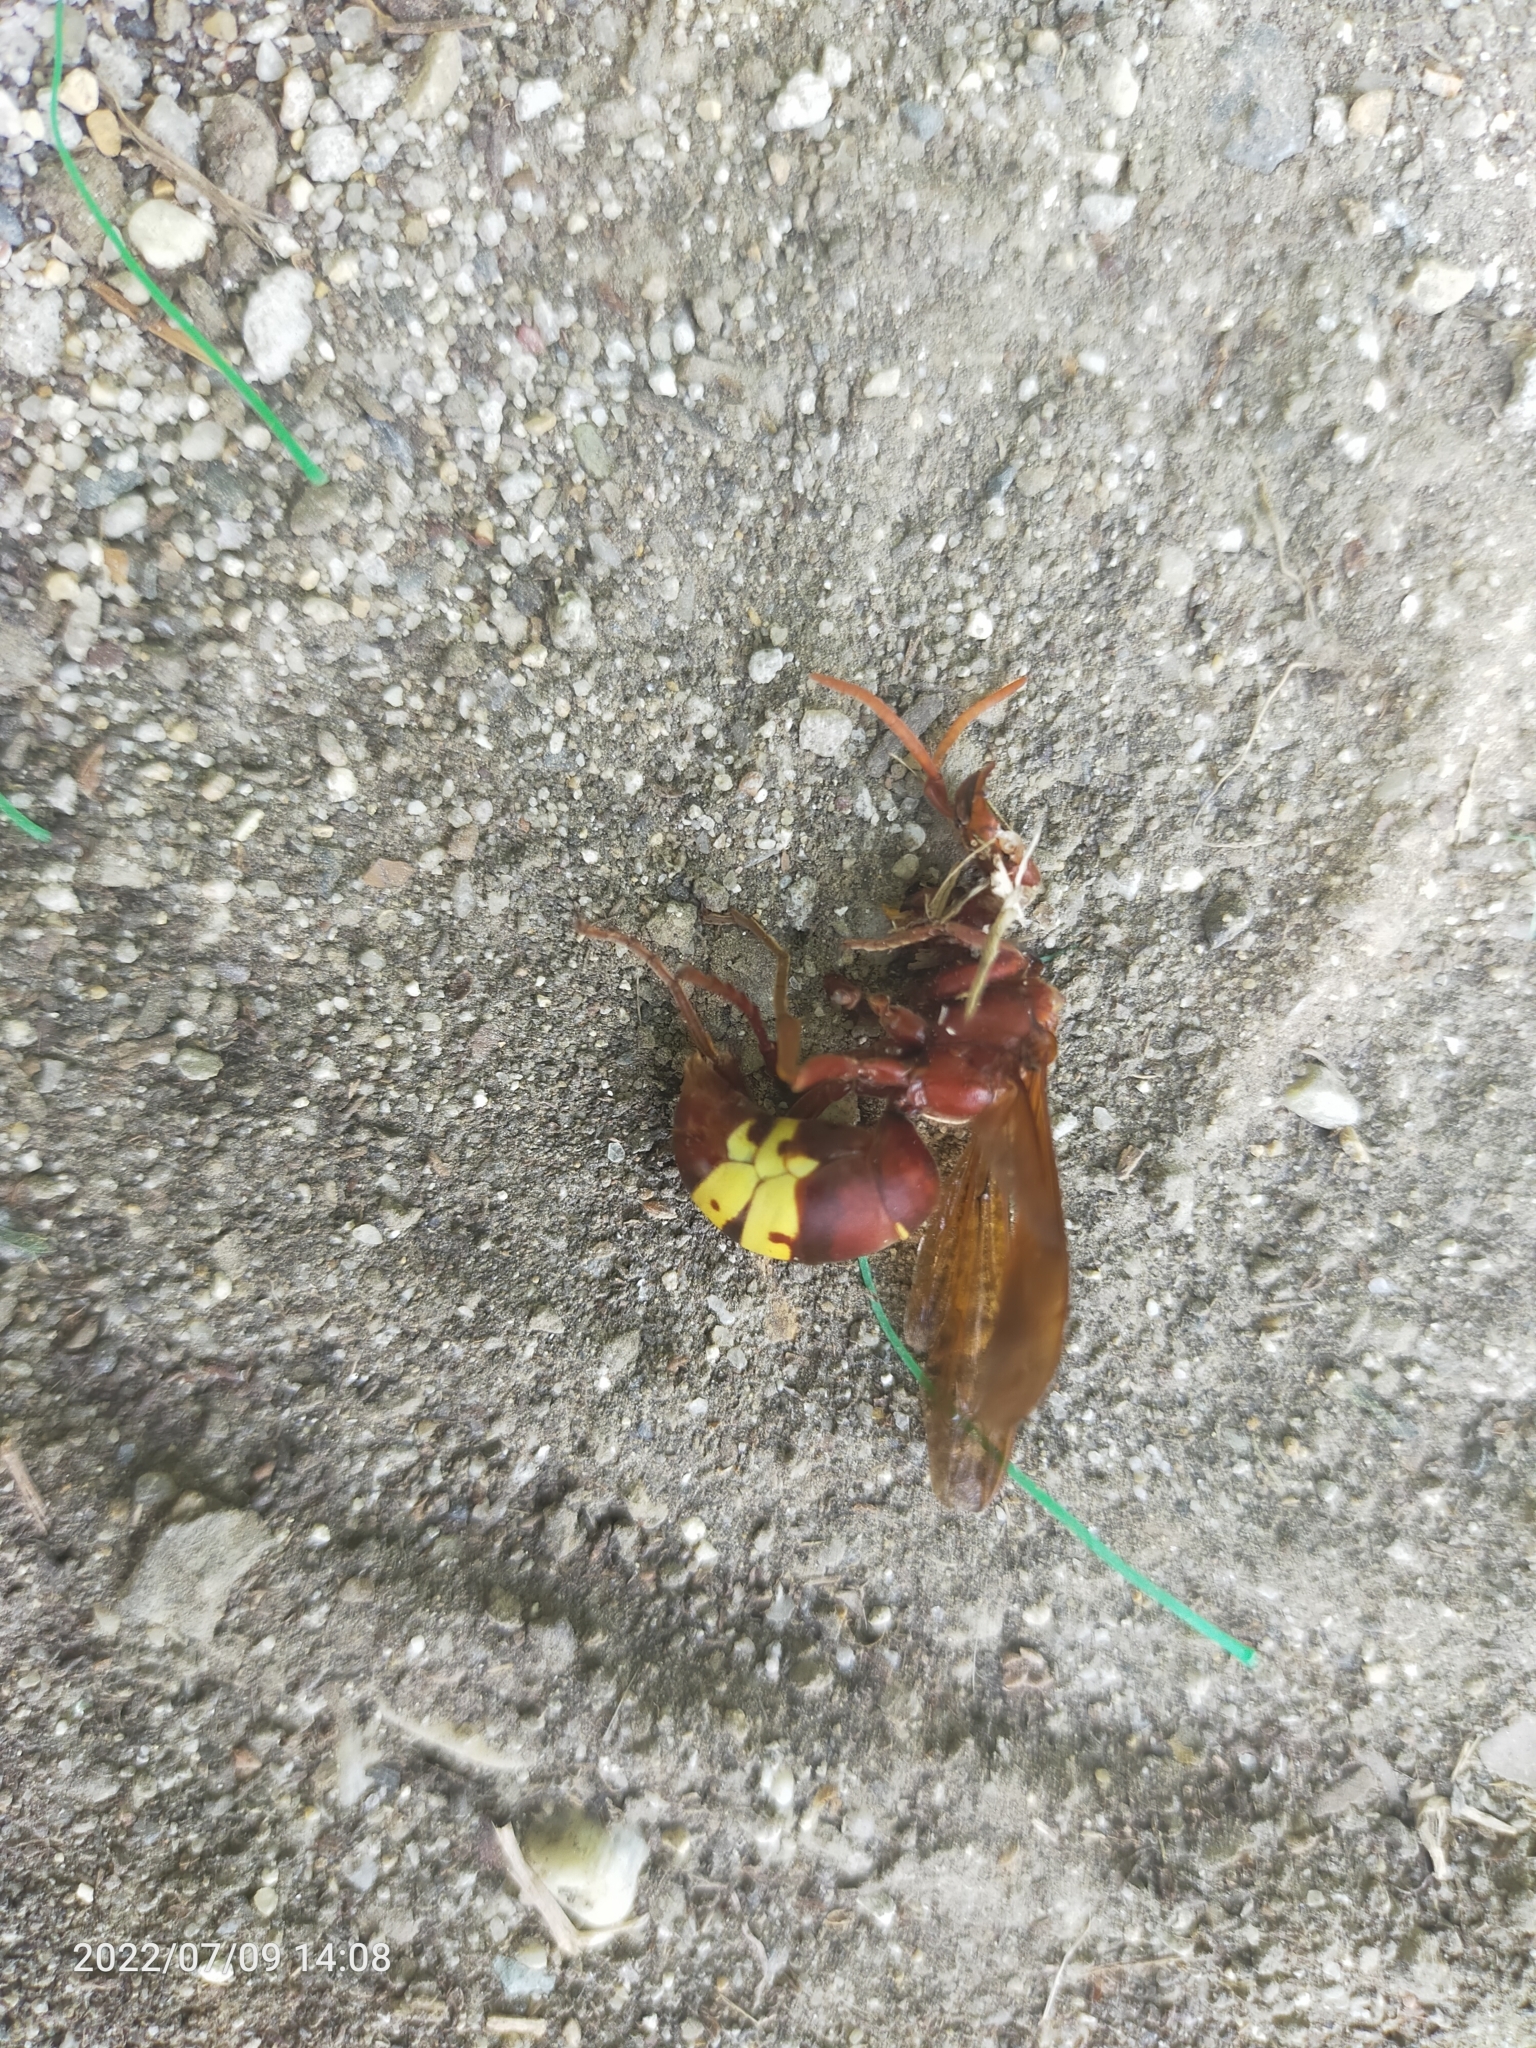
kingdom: Animalia
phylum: Arthropoda
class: Insecta
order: Hymenoptera
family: Vespidae
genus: Vespa
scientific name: Vespa orientalis
